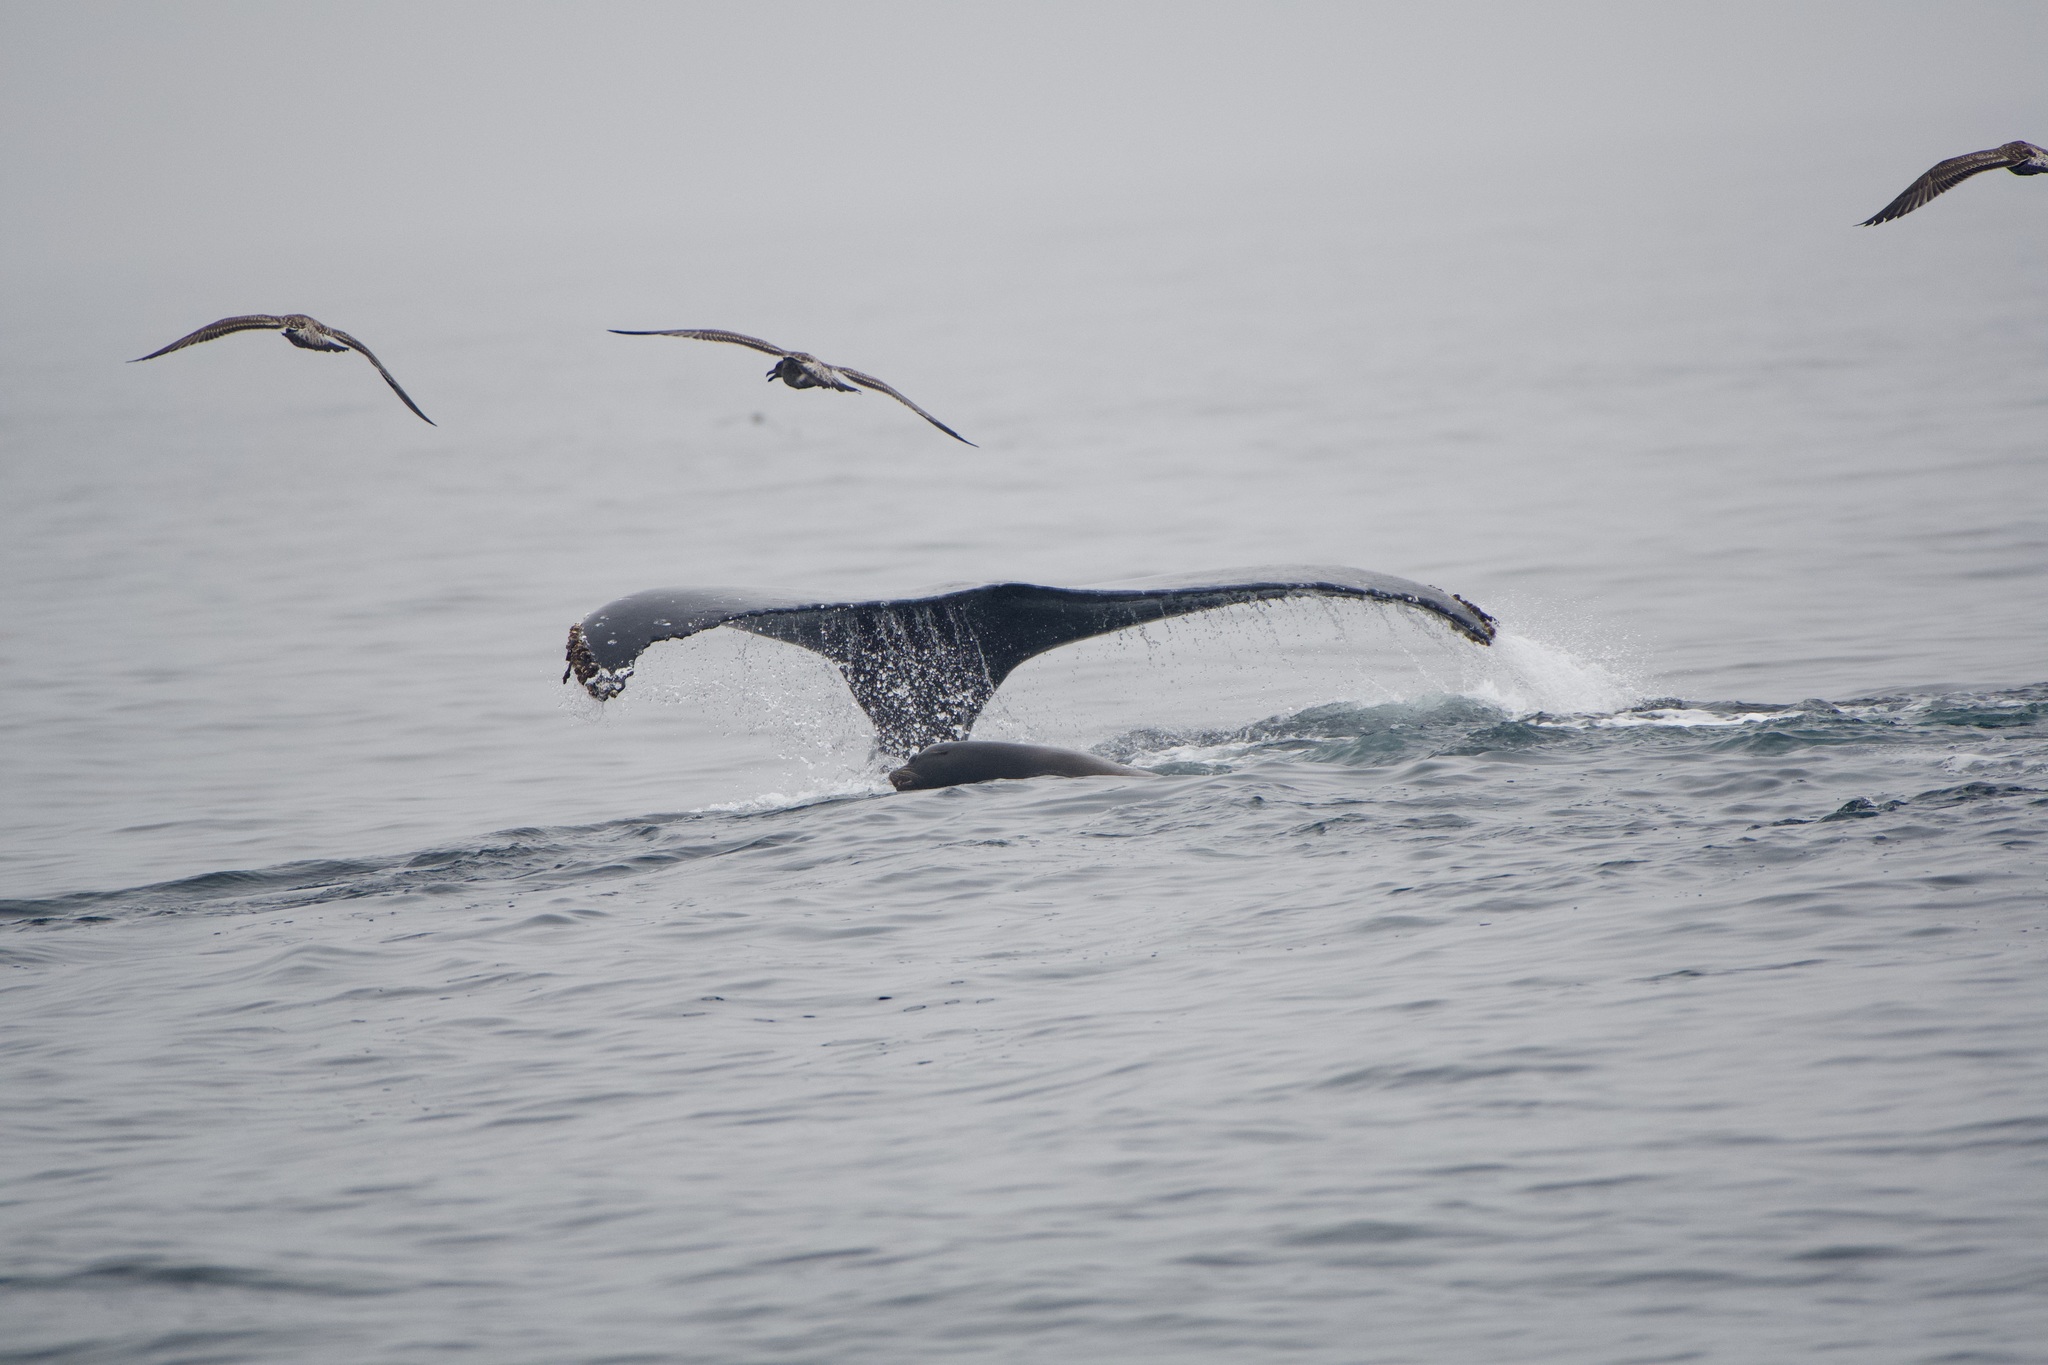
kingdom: Animalia
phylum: Chordata
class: Mammalia
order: Cetacea
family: Balaenopteridae
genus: Megaptera
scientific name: Megaptera novaeangliae
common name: Humpback whale
